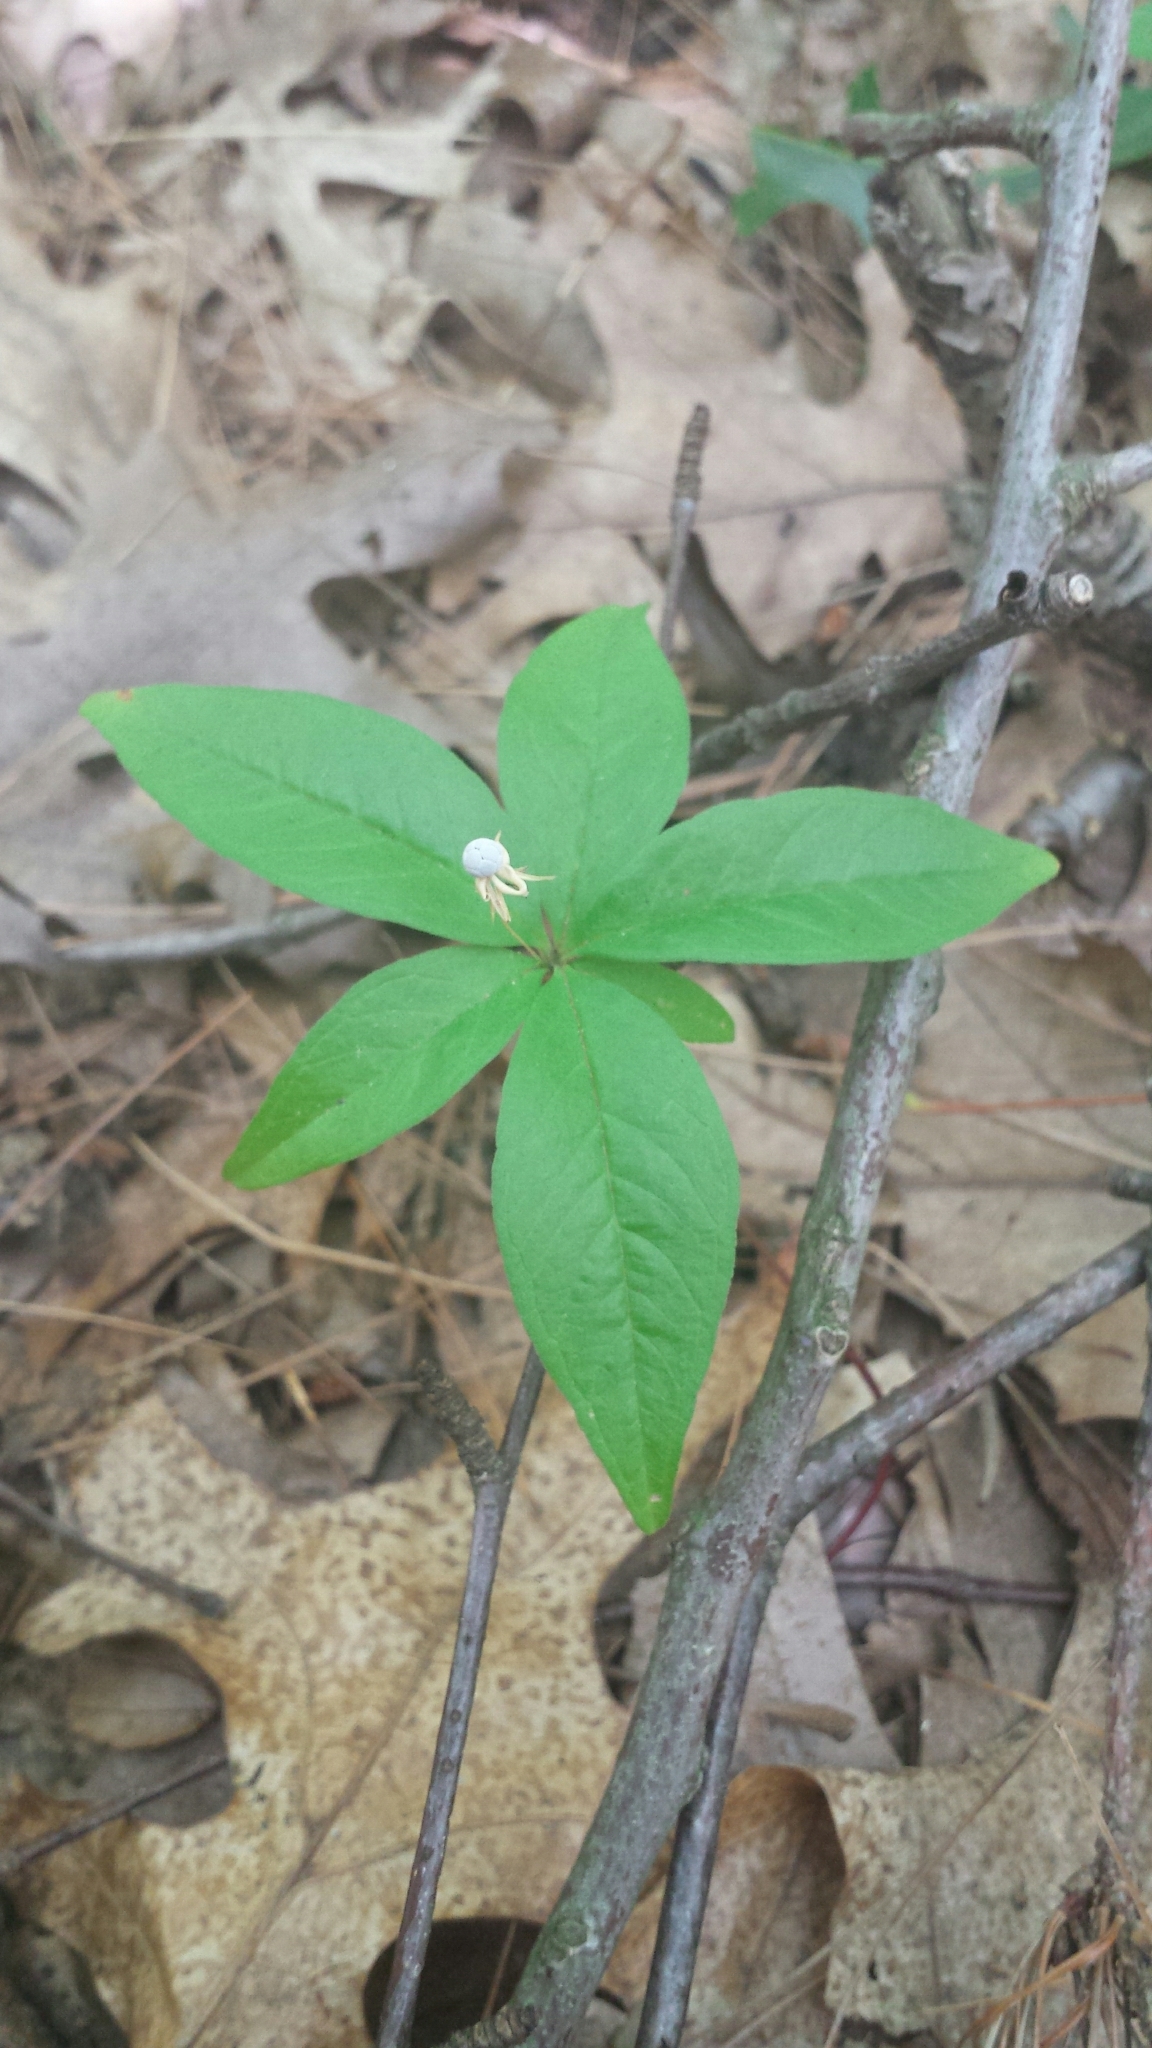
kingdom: Plantae
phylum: Tracheophyta
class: Magnoliopsida
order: Ericales
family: Primulaceae
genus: Lysimachia
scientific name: Lysimachia borealis
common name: American starflower
